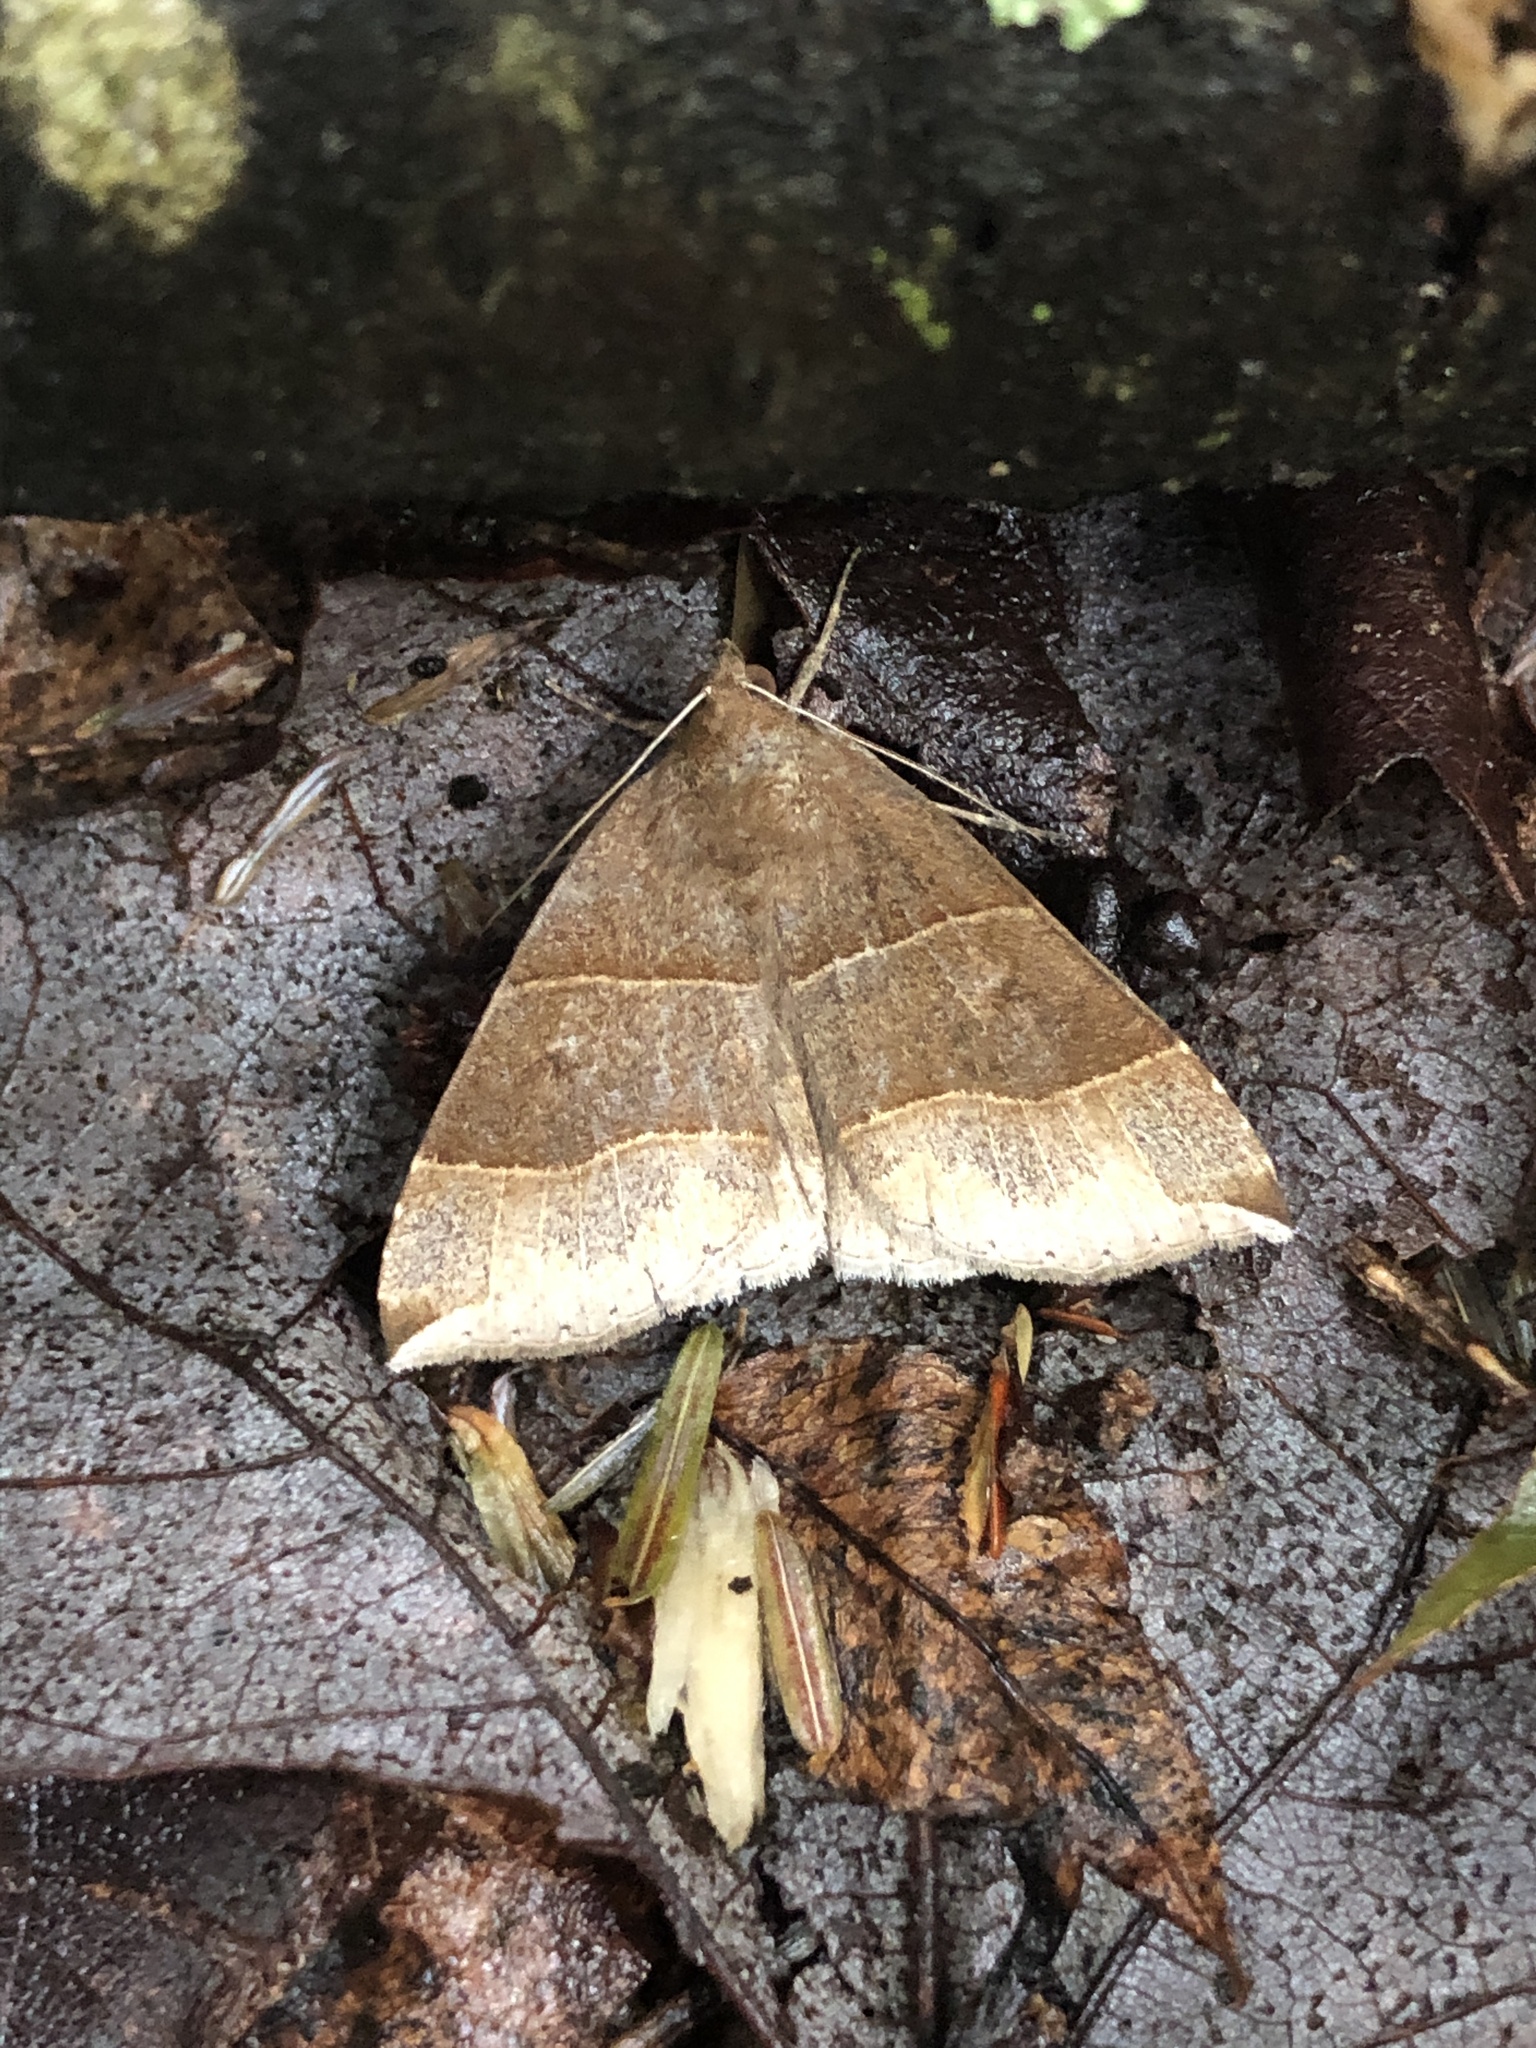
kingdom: Animalia
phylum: Arthropoda
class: Insecta
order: Lepidoptera
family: Erebidae
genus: Parallelia
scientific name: Parallelia bistriaris
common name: Maple looper moth
